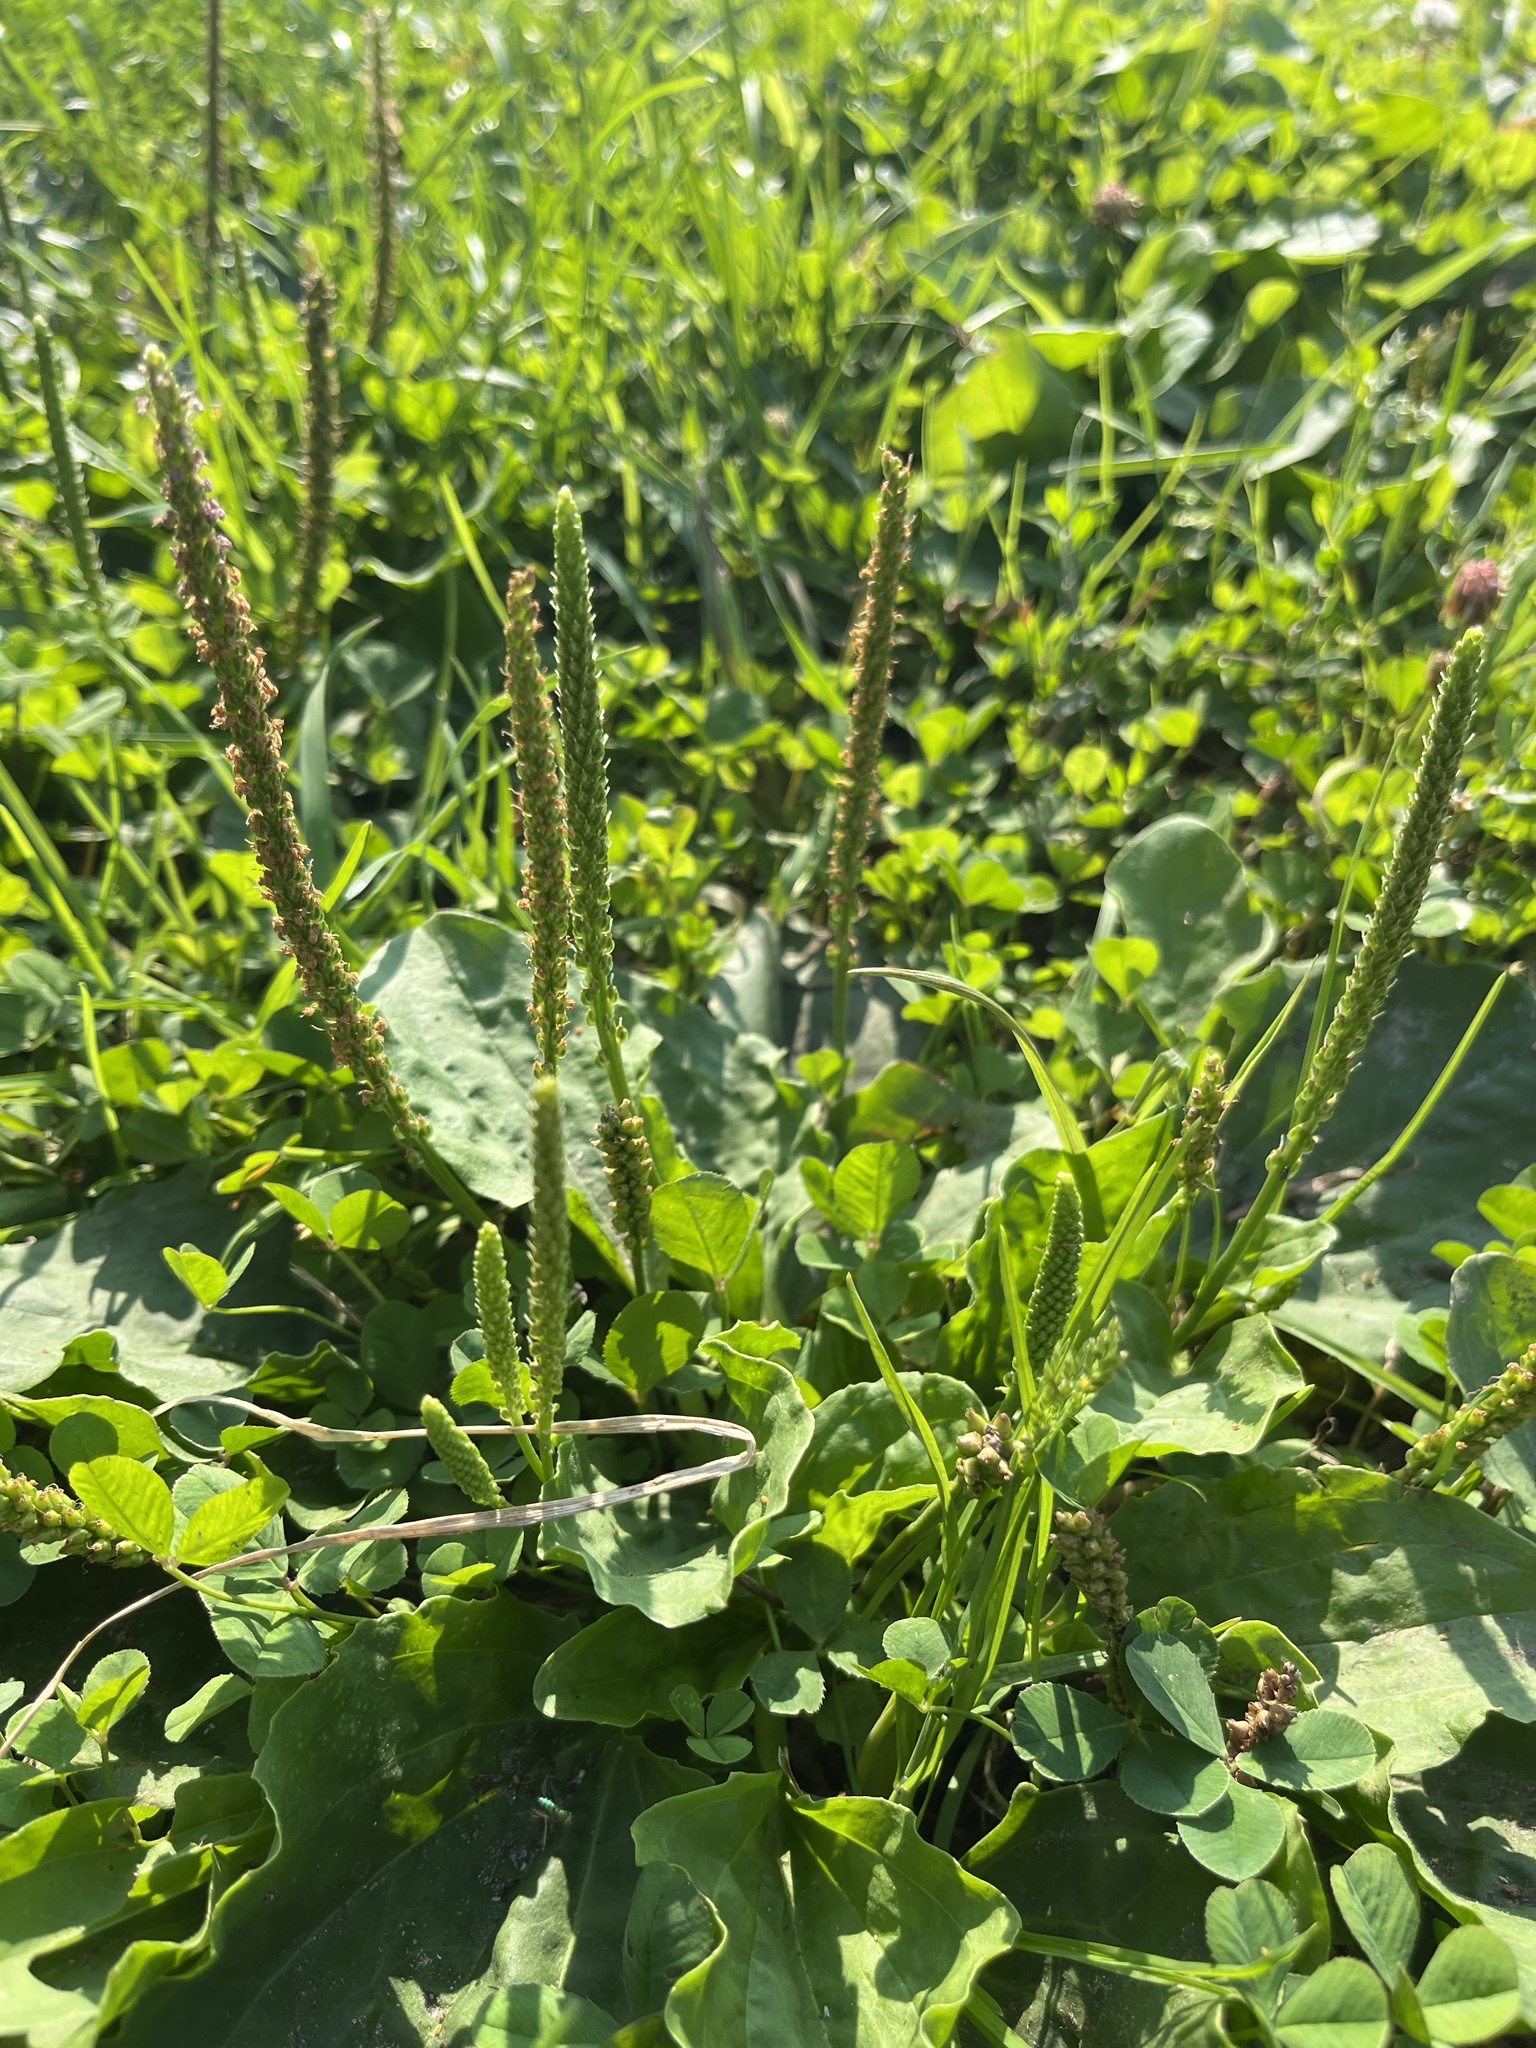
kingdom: Plantae
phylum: Tracheophyta
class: Magnoliopsida
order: Lamiales
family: Plantaginaceae
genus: Plantago
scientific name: Plantago major
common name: Common plantain
